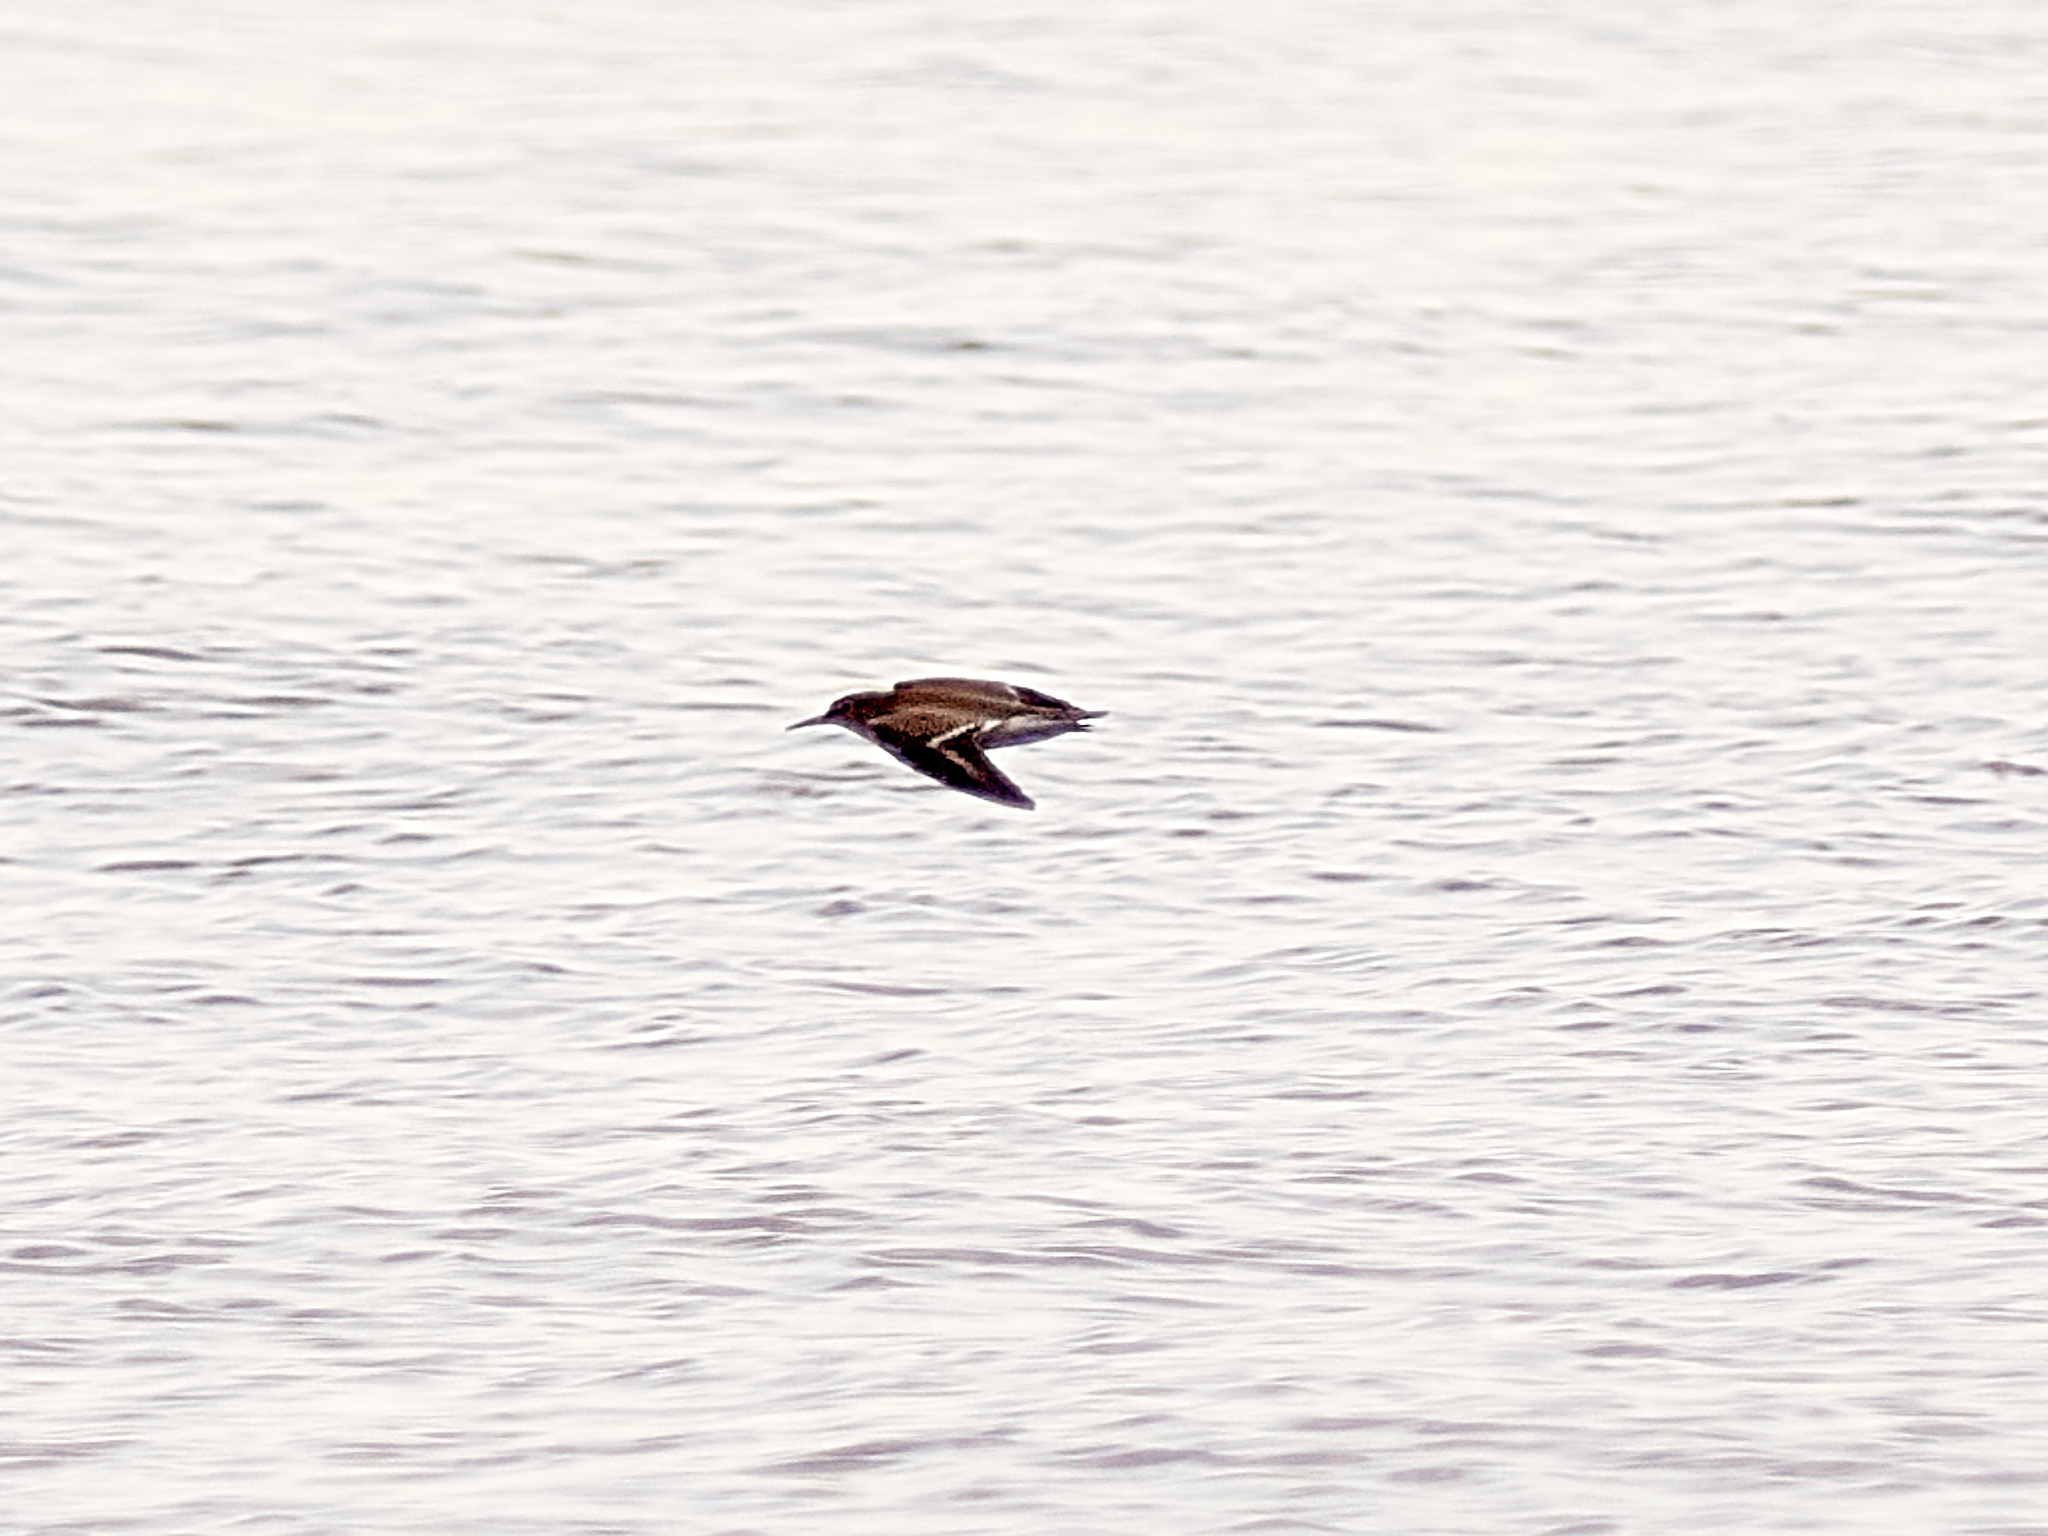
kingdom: Animalia
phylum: Chordata
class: Aves
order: Charadriiformes
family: Scolopacidae
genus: Actitis
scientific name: Actitis hypoleucos
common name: Common sandpiper
